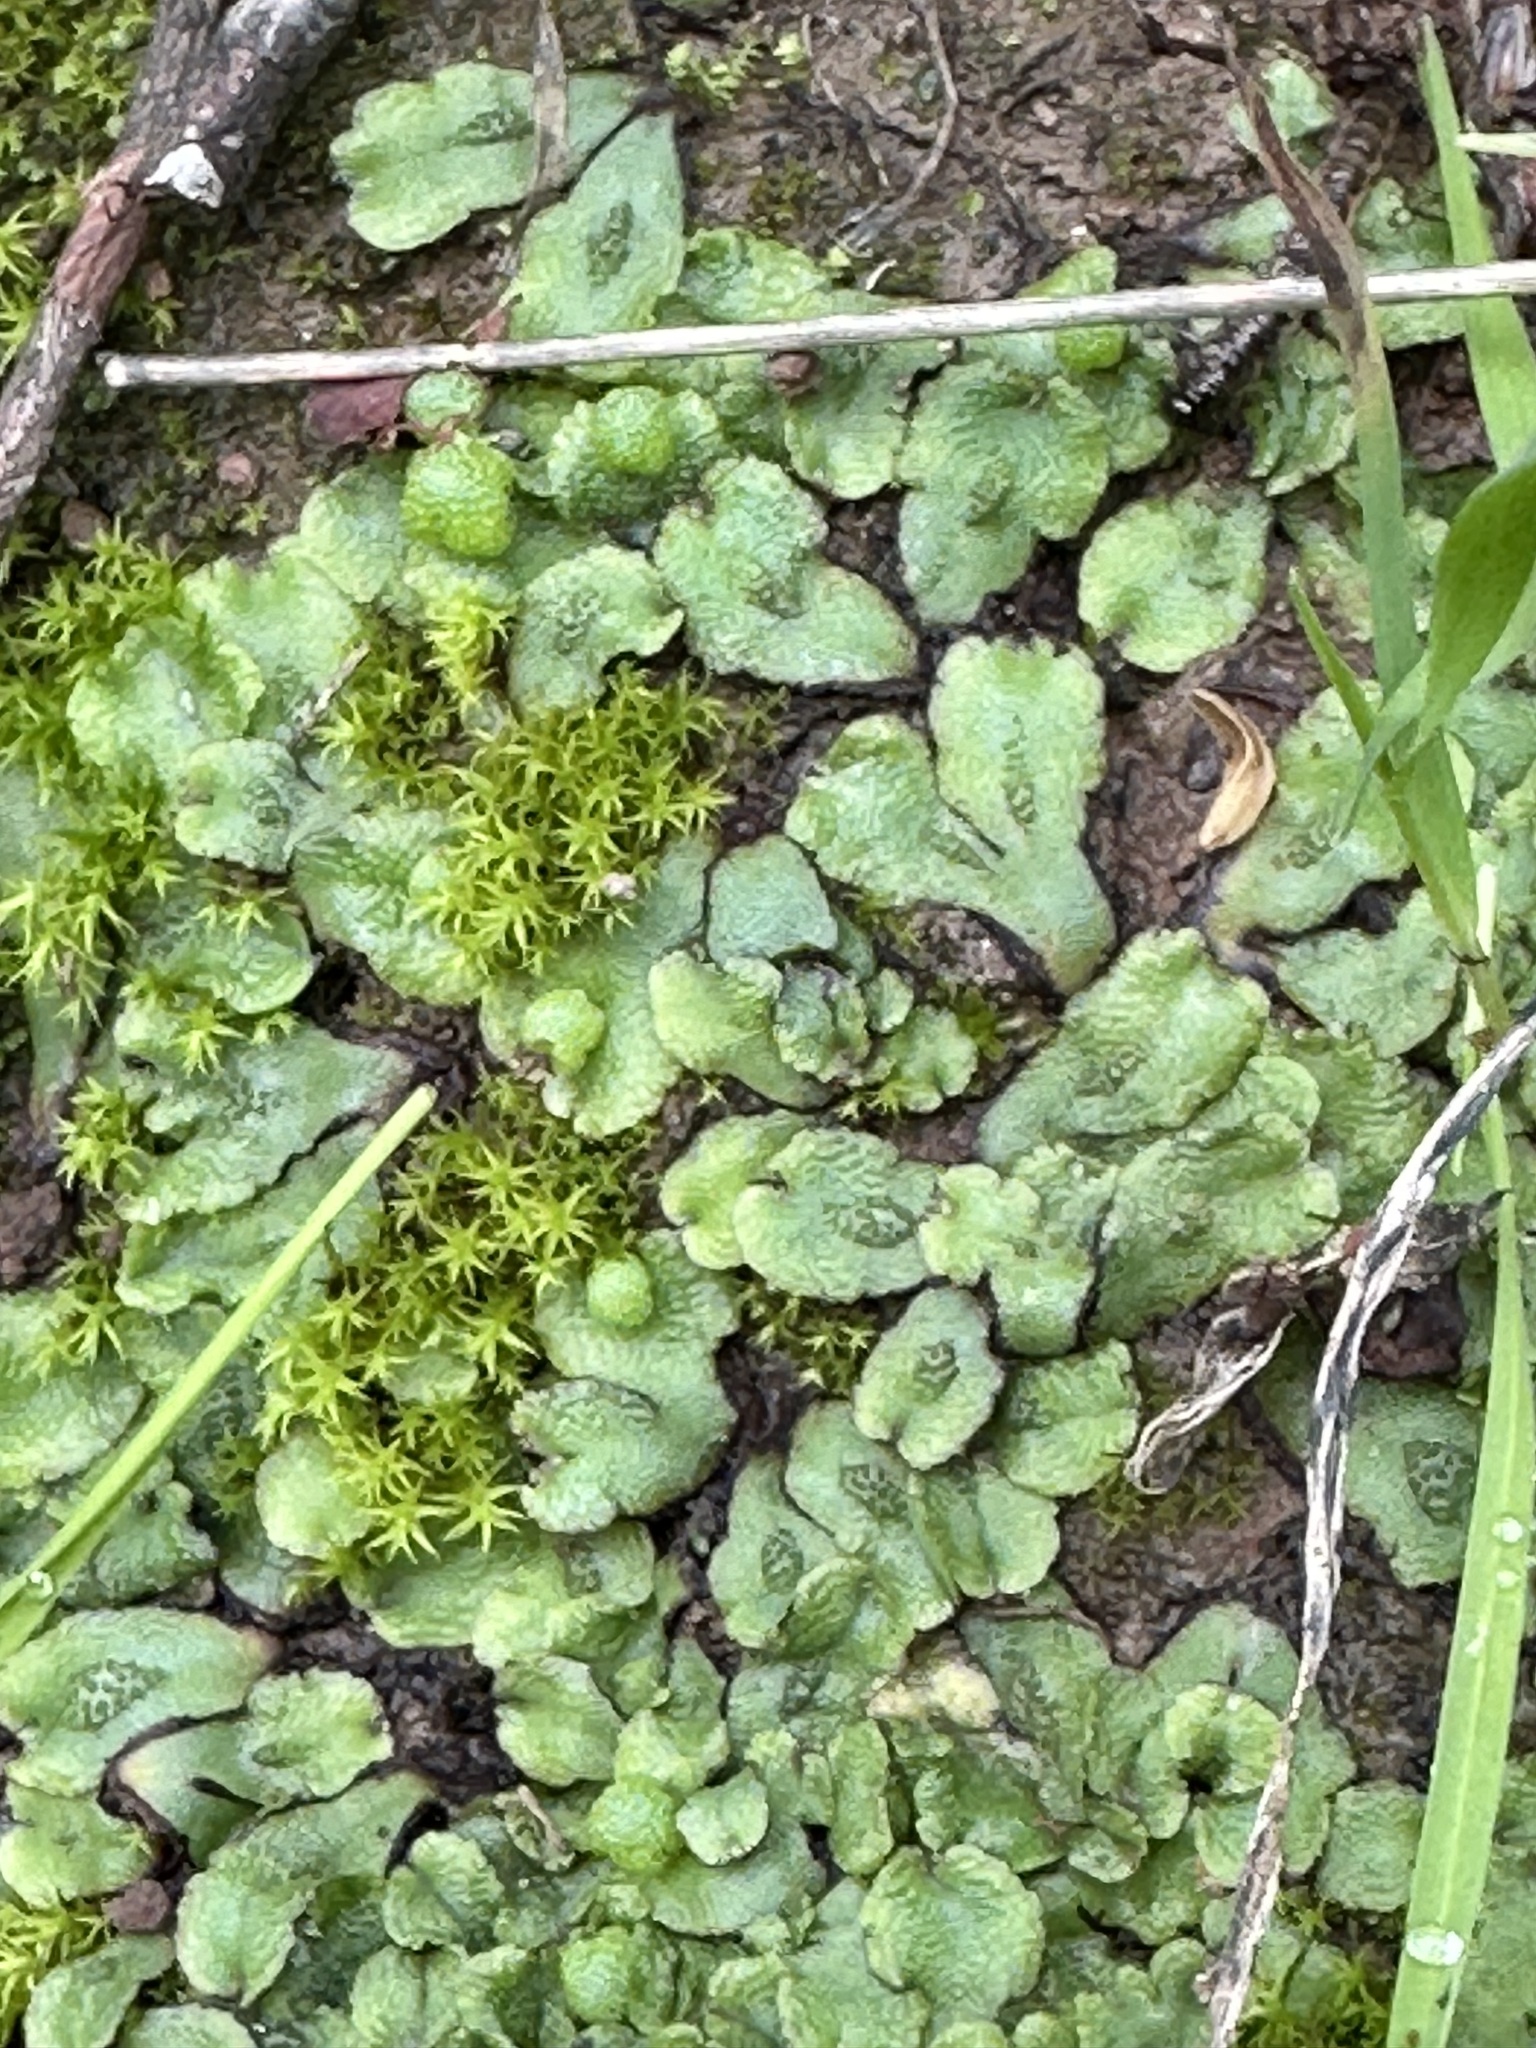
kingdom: Plantae
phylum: Marchantiophyta
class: Marchantiopsida
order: Marchantiales
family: Aytoniaceae
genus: Asterella
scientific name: Asterella californica
